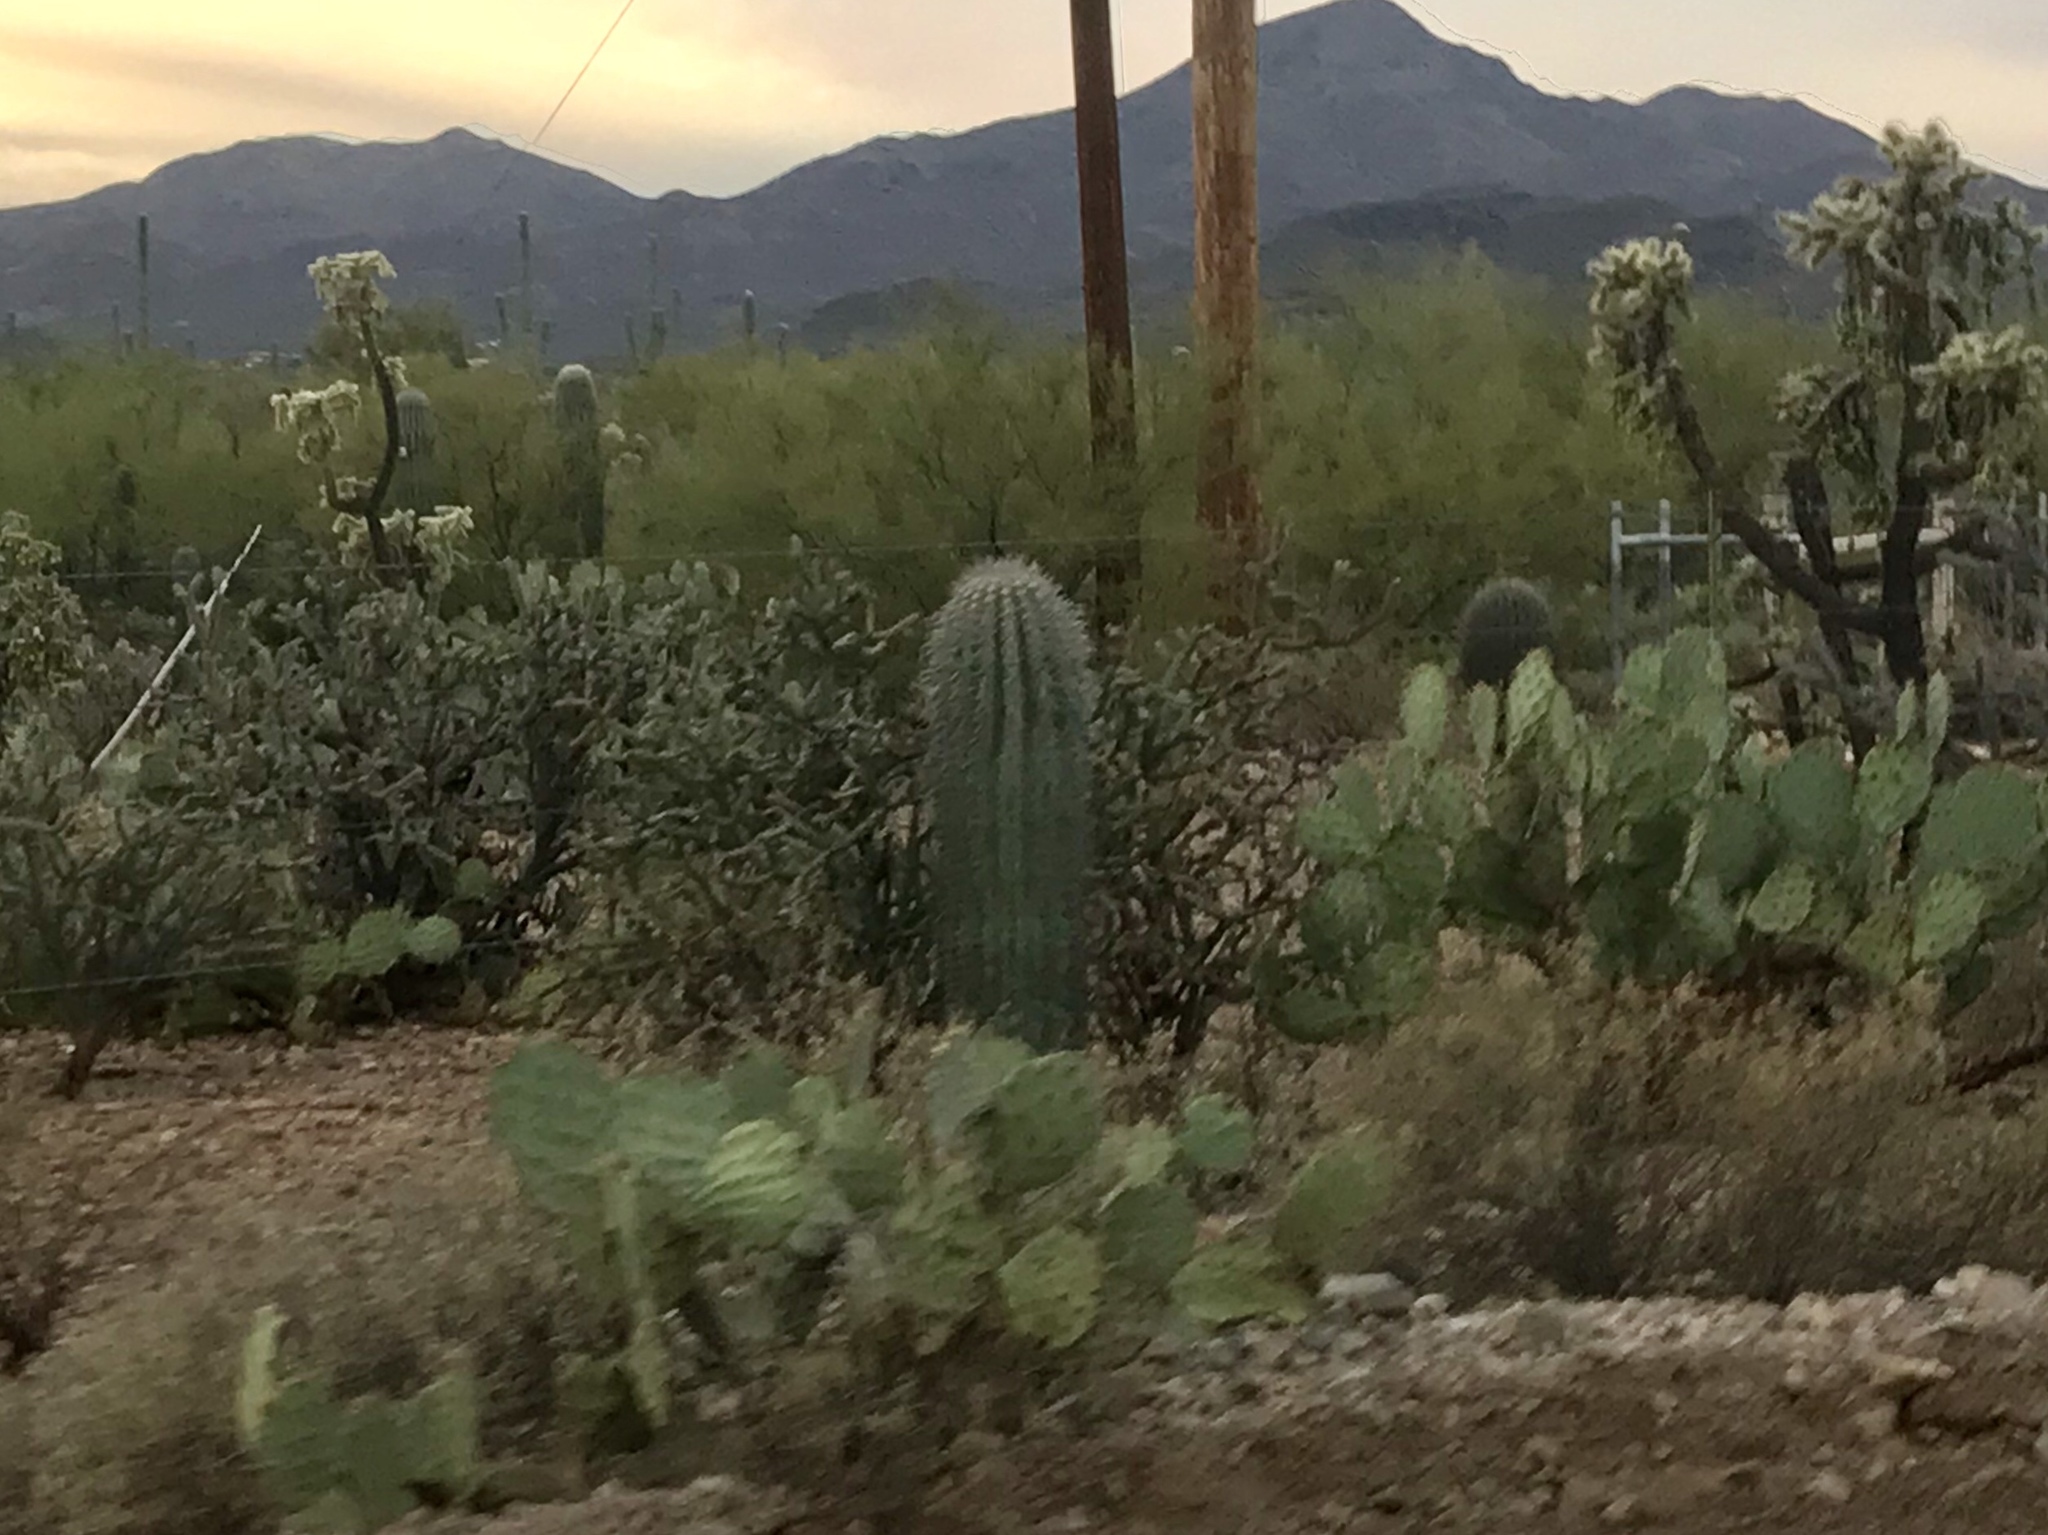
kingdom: Plantae
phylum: Tracheophyta
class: Magnoliopsida
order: Caryophyllales
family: Cactaceae
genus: Carnegiea
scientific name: Carnegiea gigantea
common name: Saguaro
